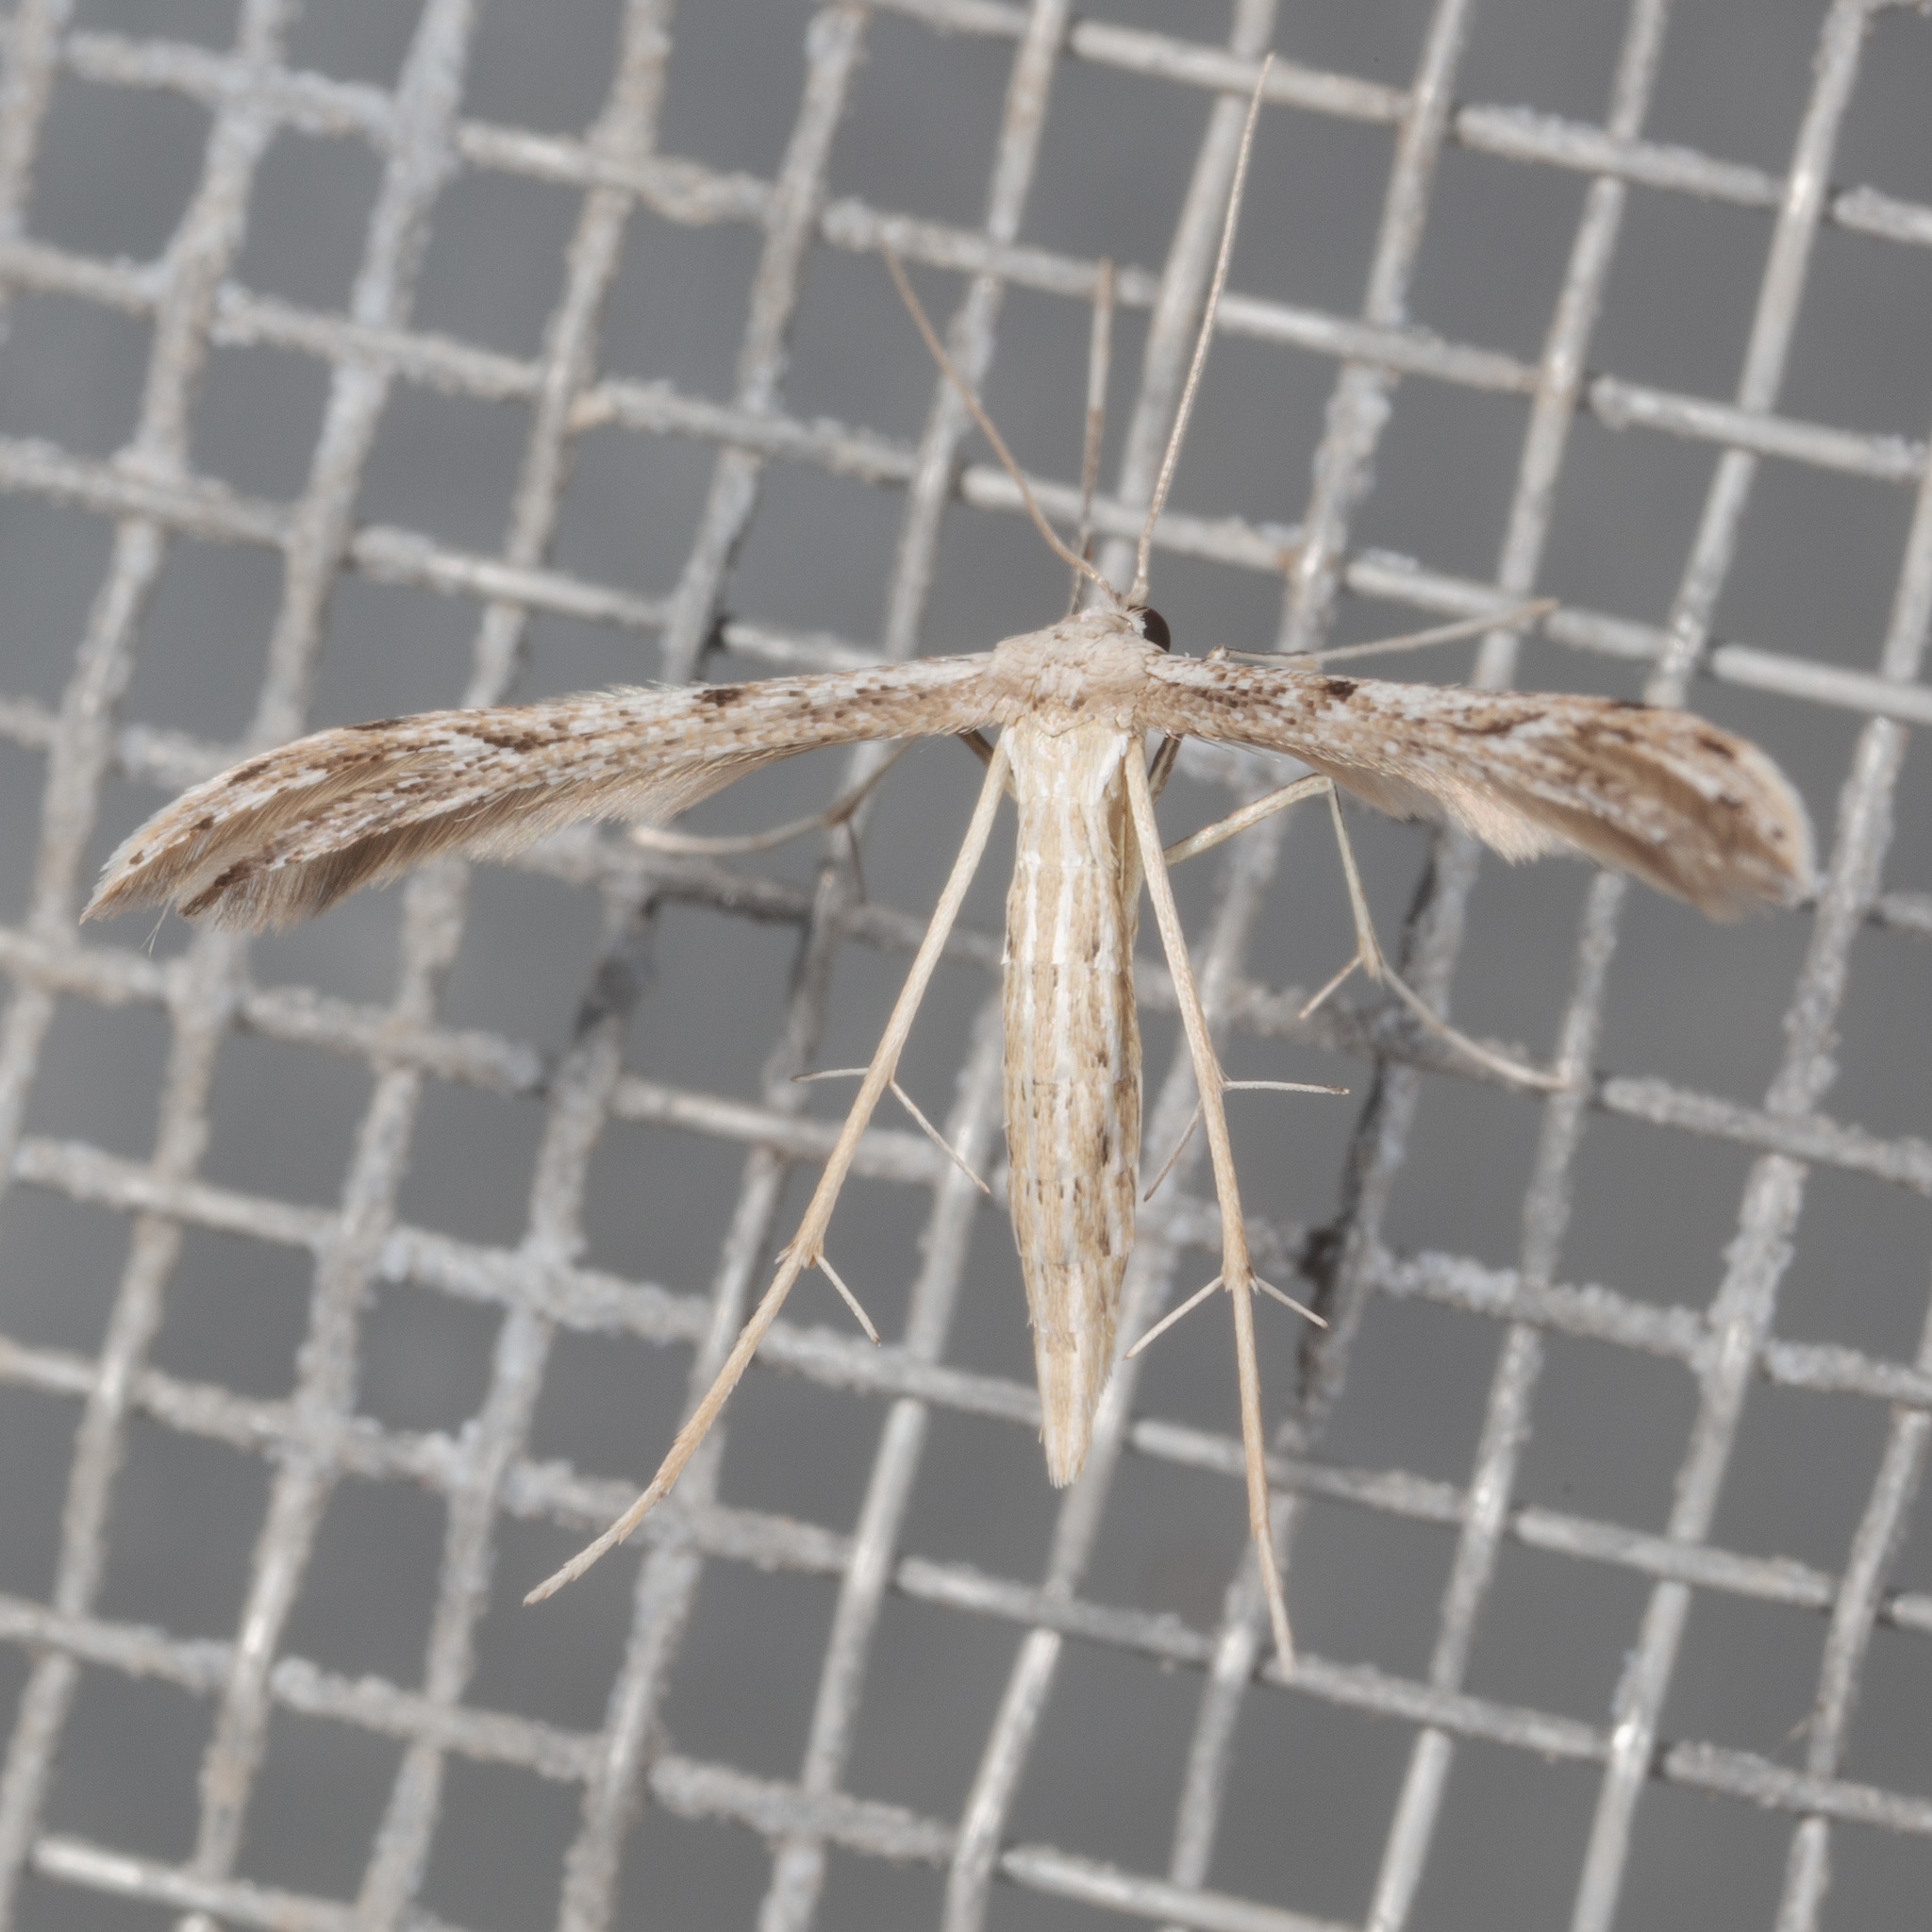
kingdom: Animalia
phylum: Arthropoda
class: Insecta
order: Lepidoptera
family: Pterophoridae
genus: Pselnophorus
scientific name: Pselnophorus belfragei
